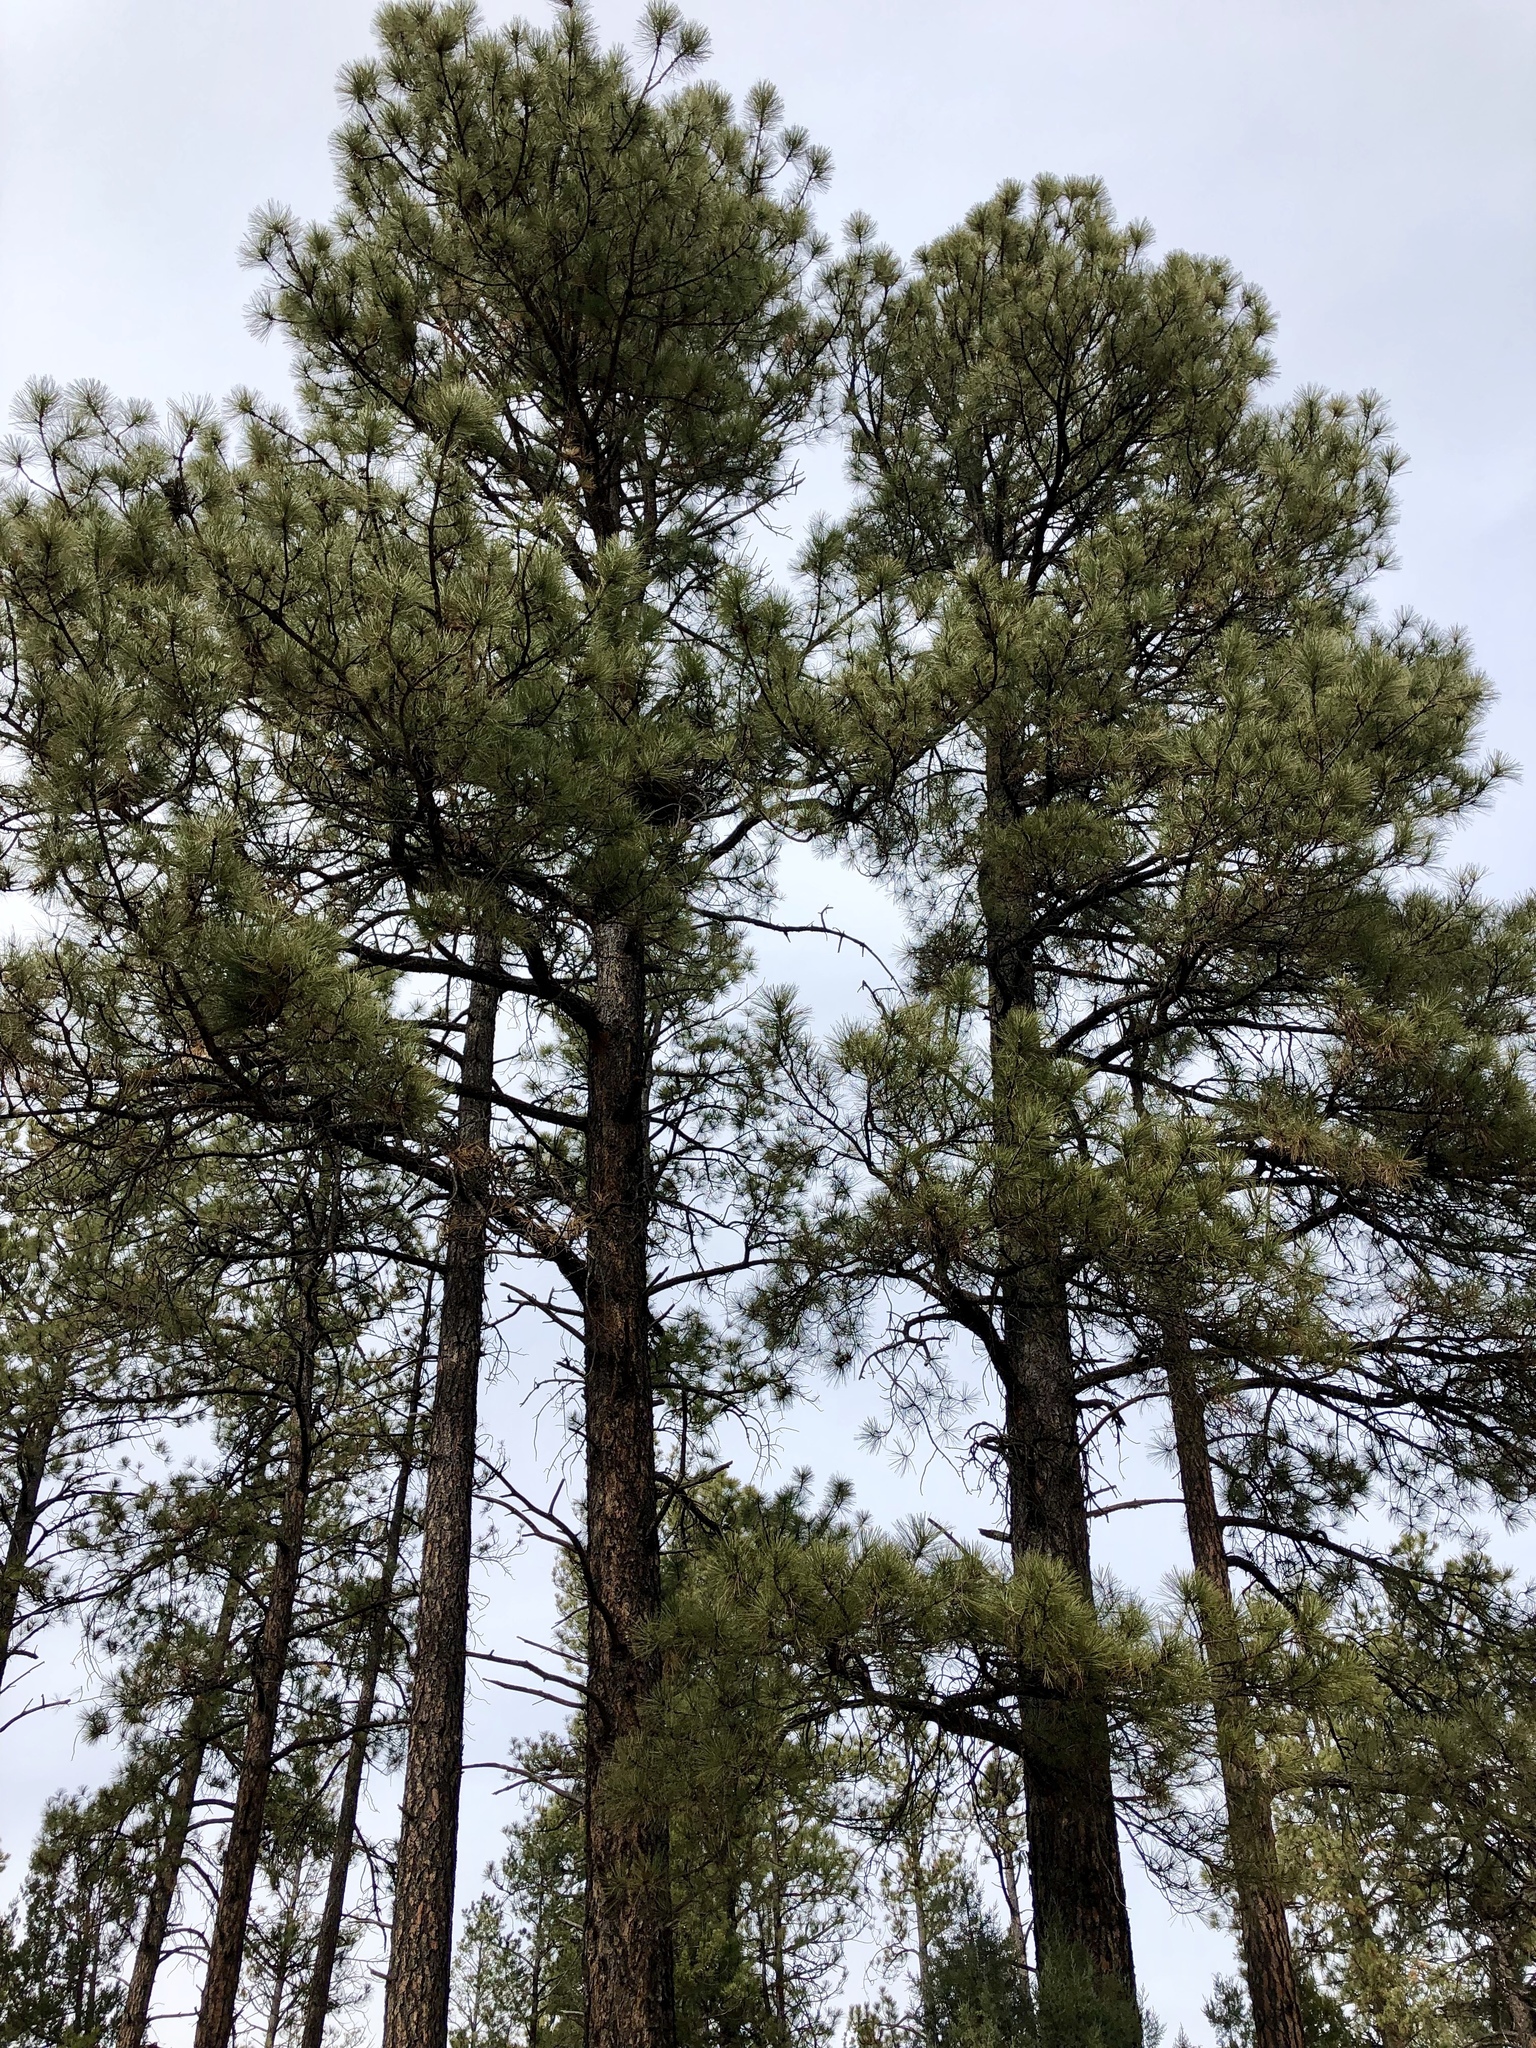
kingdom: Plantae
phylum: Tracheophyta
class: Pinopsida
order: Pinales
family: Pinaceae
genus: Pinus
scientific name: Pinus ponderosa
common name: Western yellow-pine
